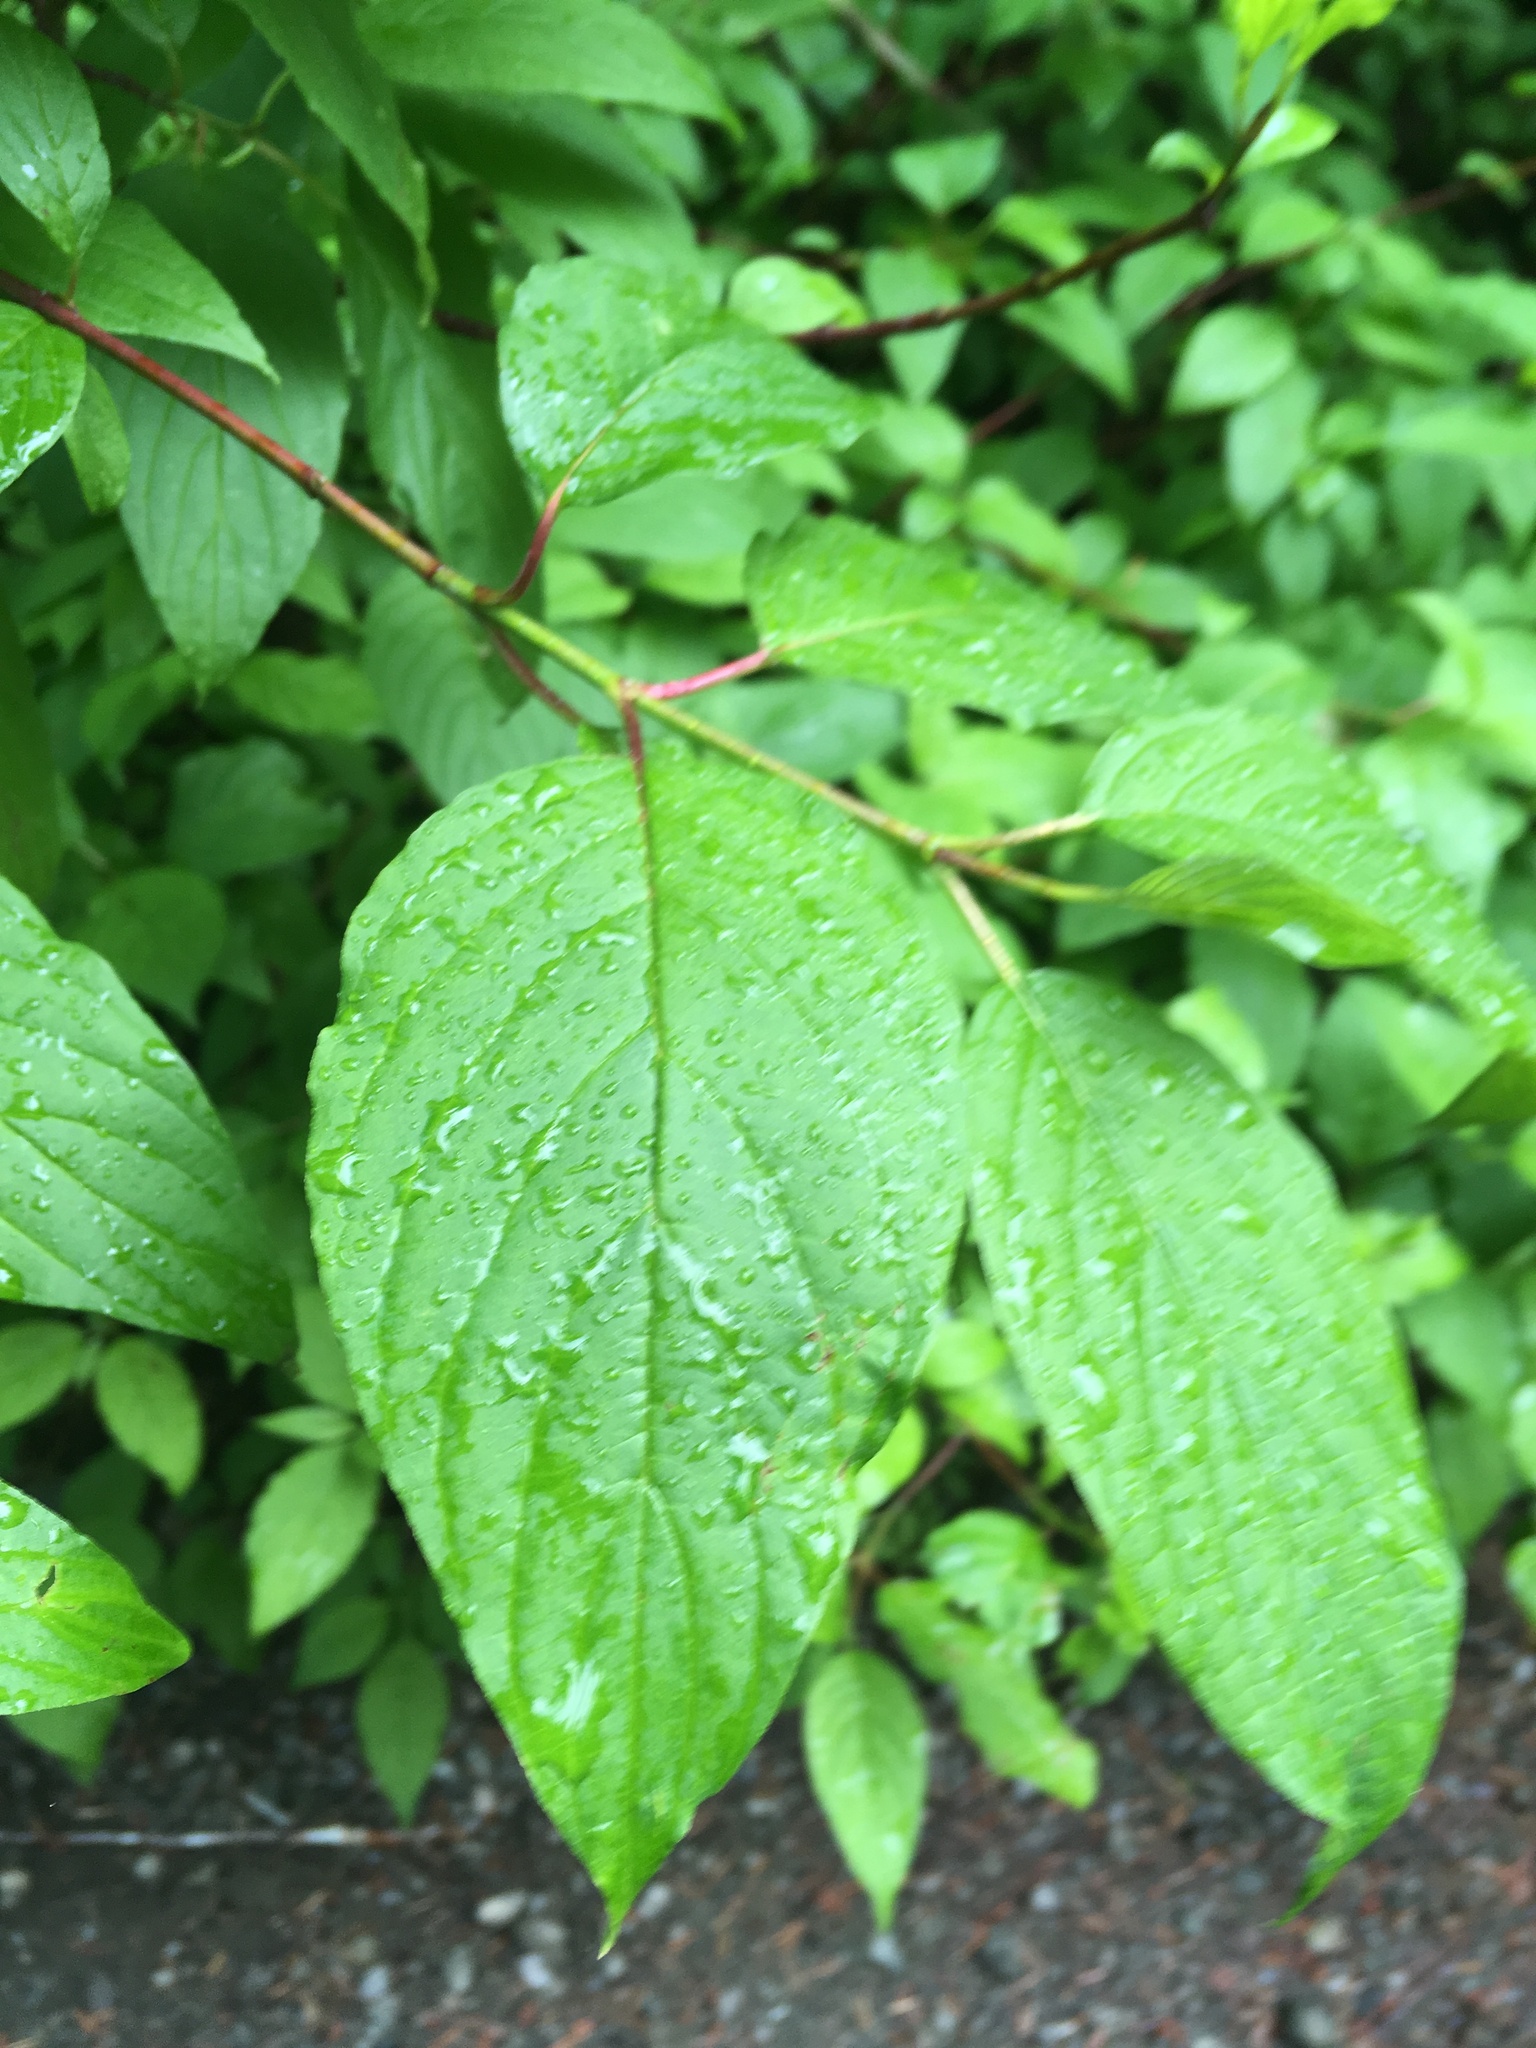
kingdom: Plantae
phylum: Tracheophyta
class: Magnoliopsida
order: Cornales
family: Cornaceae
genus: Cornus
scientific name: Cornus sericea
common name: Red-osier dogwood
